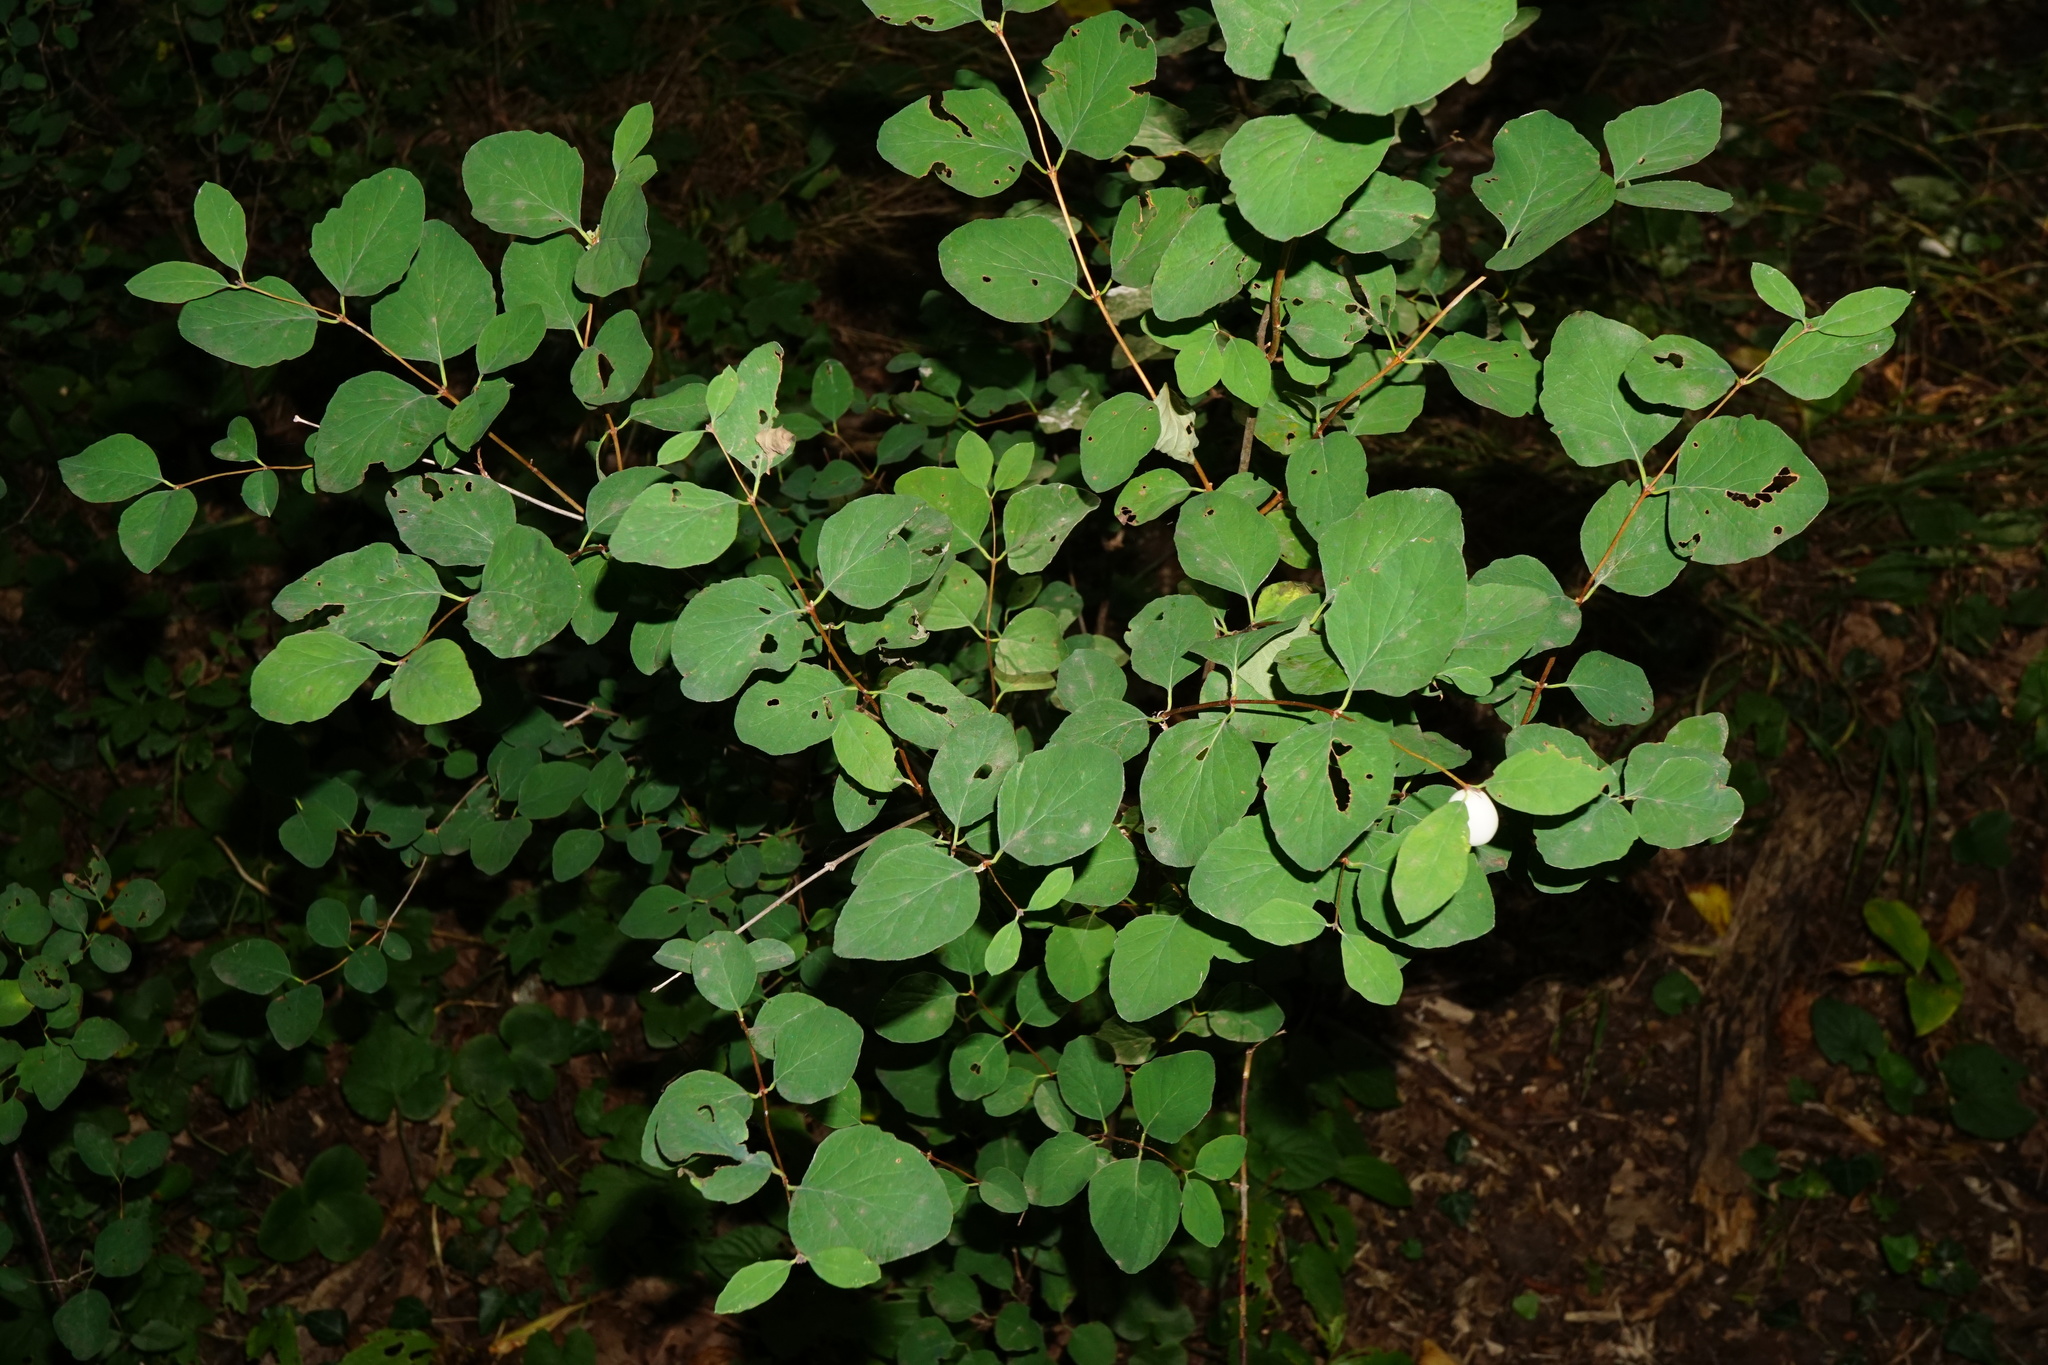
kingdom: Plantae
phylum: Tracheophyta
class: Magnoliopsida
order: Dipsacales
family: Caprifoliaceae
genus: Symphoricarpos
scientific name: Symphoricarpos albus
